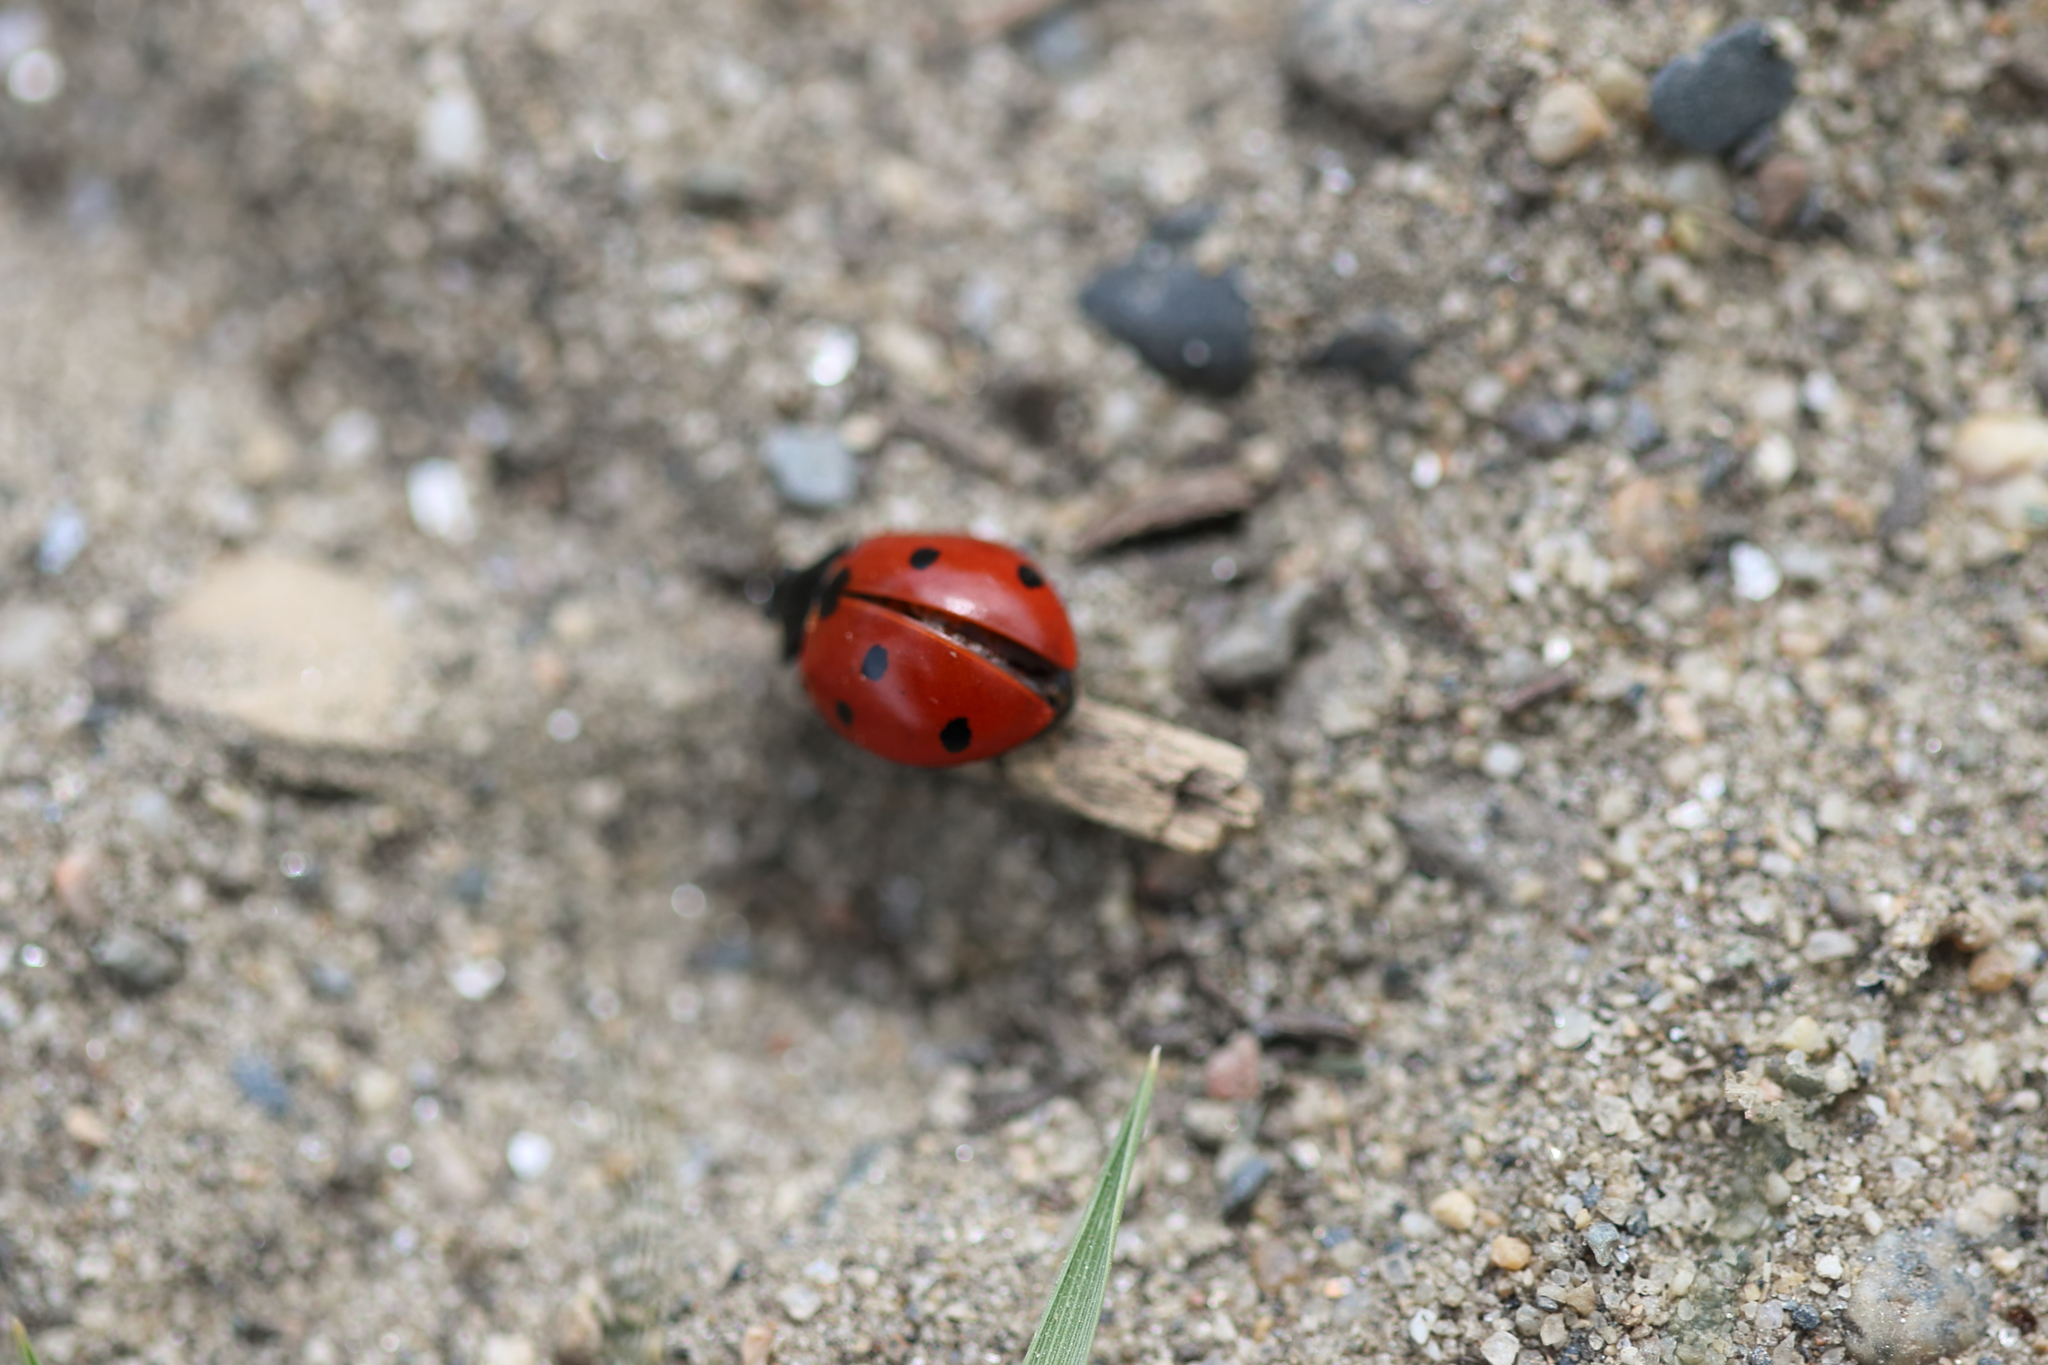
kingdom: Animalia
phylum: Arthropoda
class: Insecta
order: Coleoptera
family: Coccinellidae
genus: Coccinella
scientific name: Coccinella septempunctata
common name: Sevenspotted lady beetle
